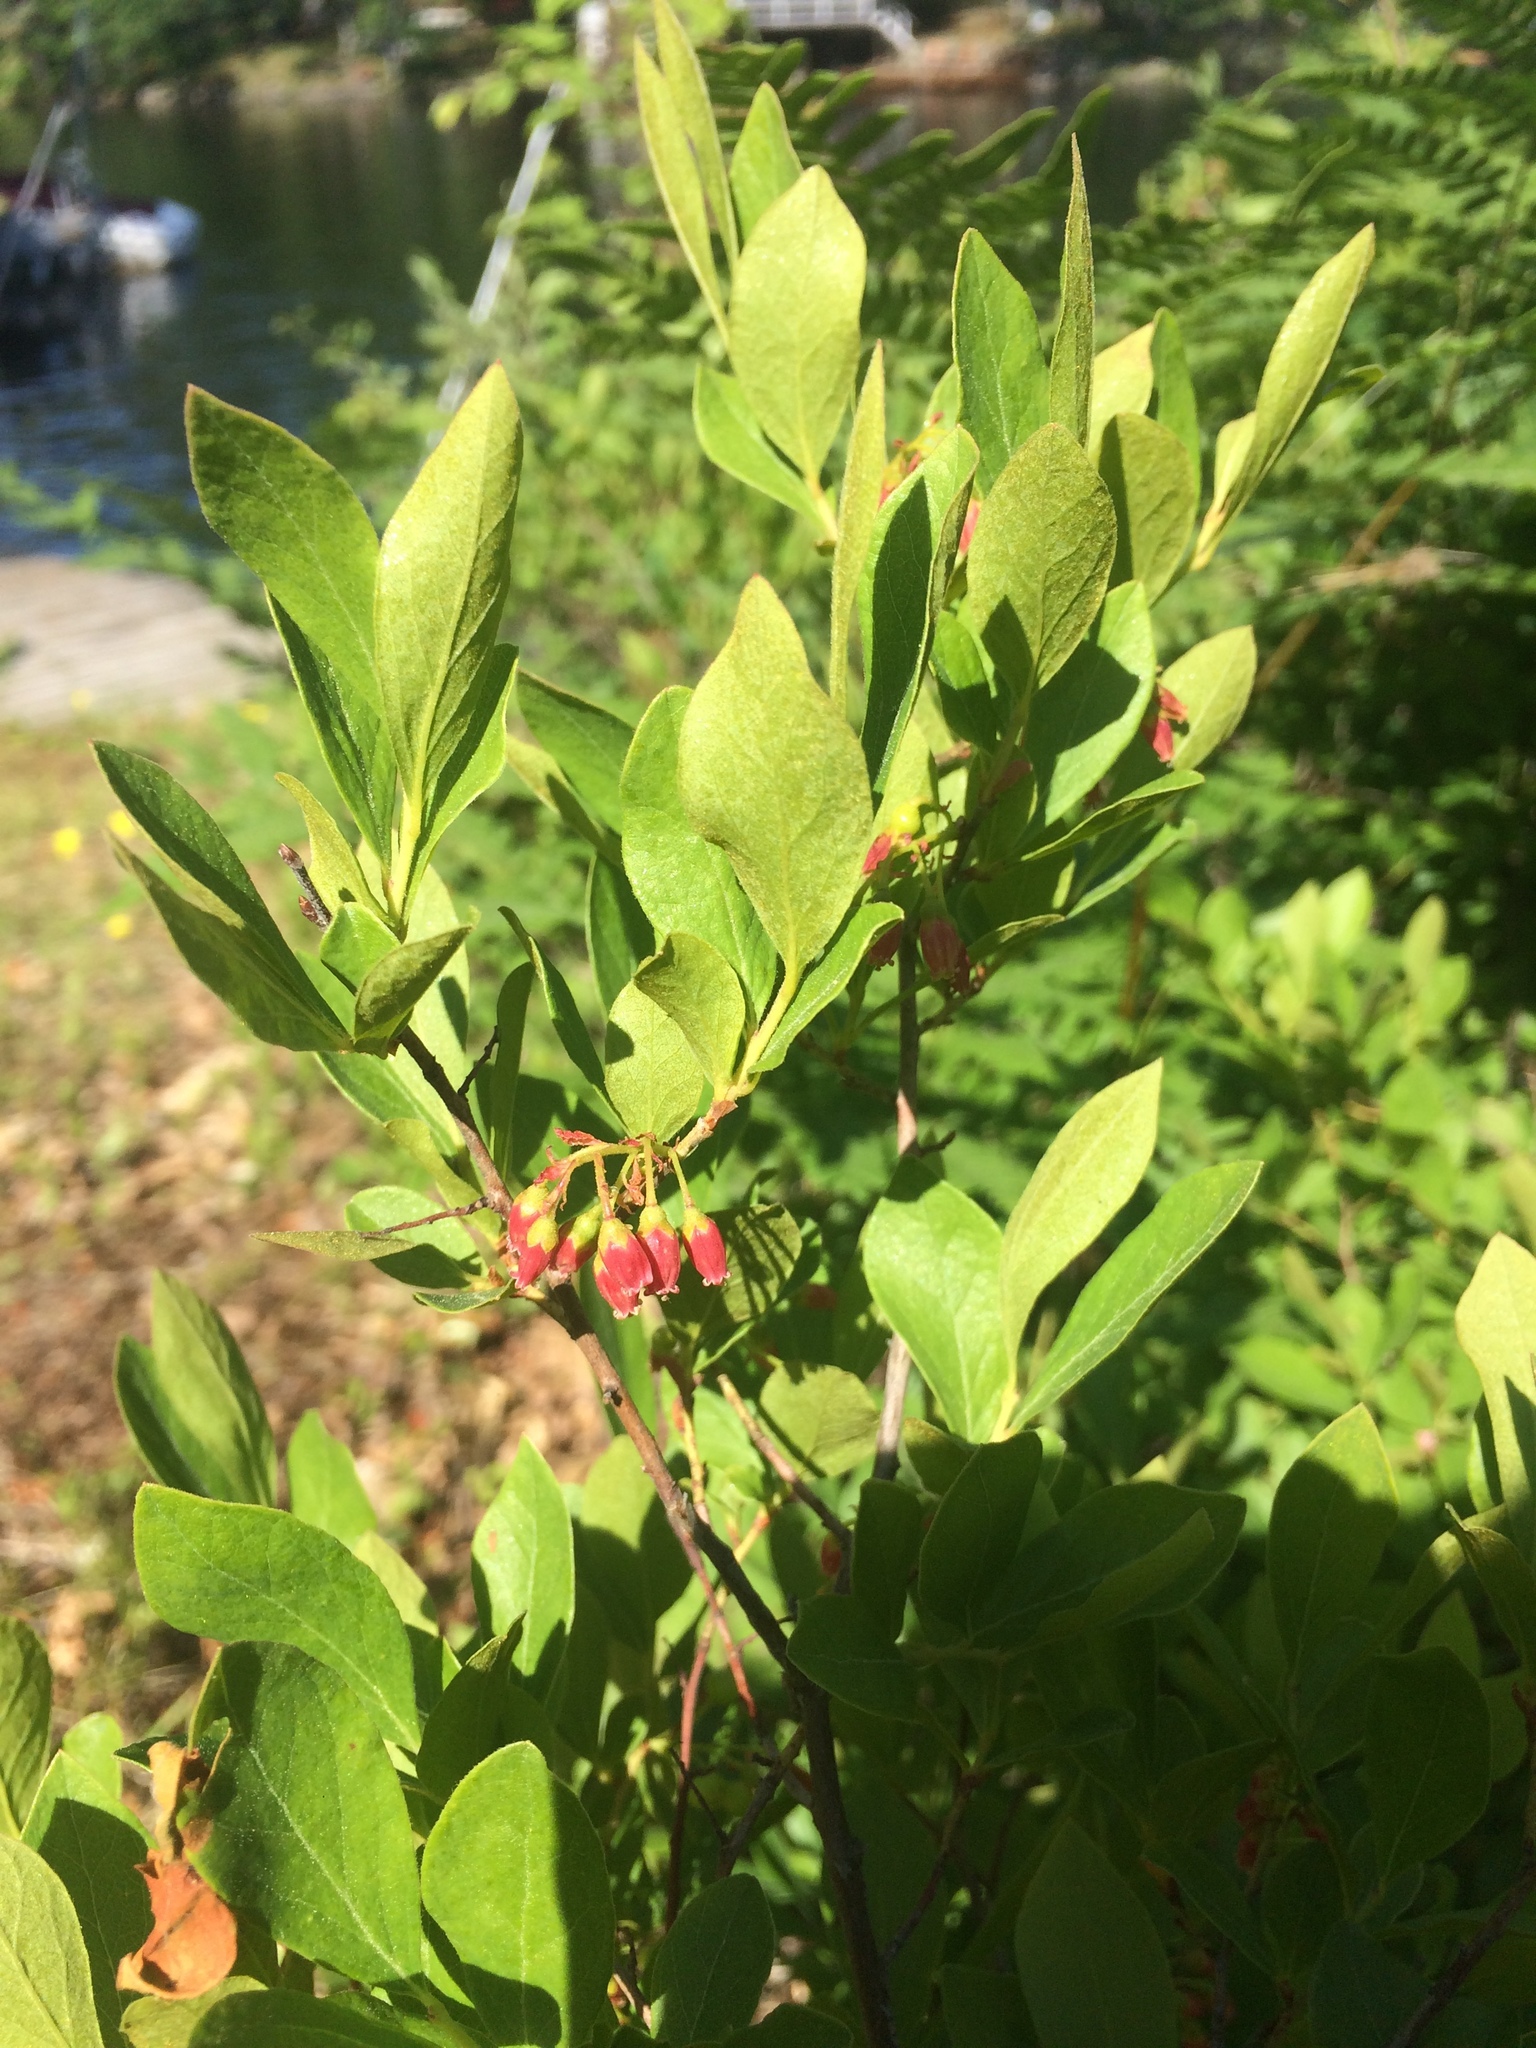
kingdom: Plantae
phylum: Tracheophyta
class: Magnoliopsida
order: Ericales
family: Ericaceae
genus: Gaylussacia
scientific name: Gaylussacia baccata
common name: Black huckleberry
